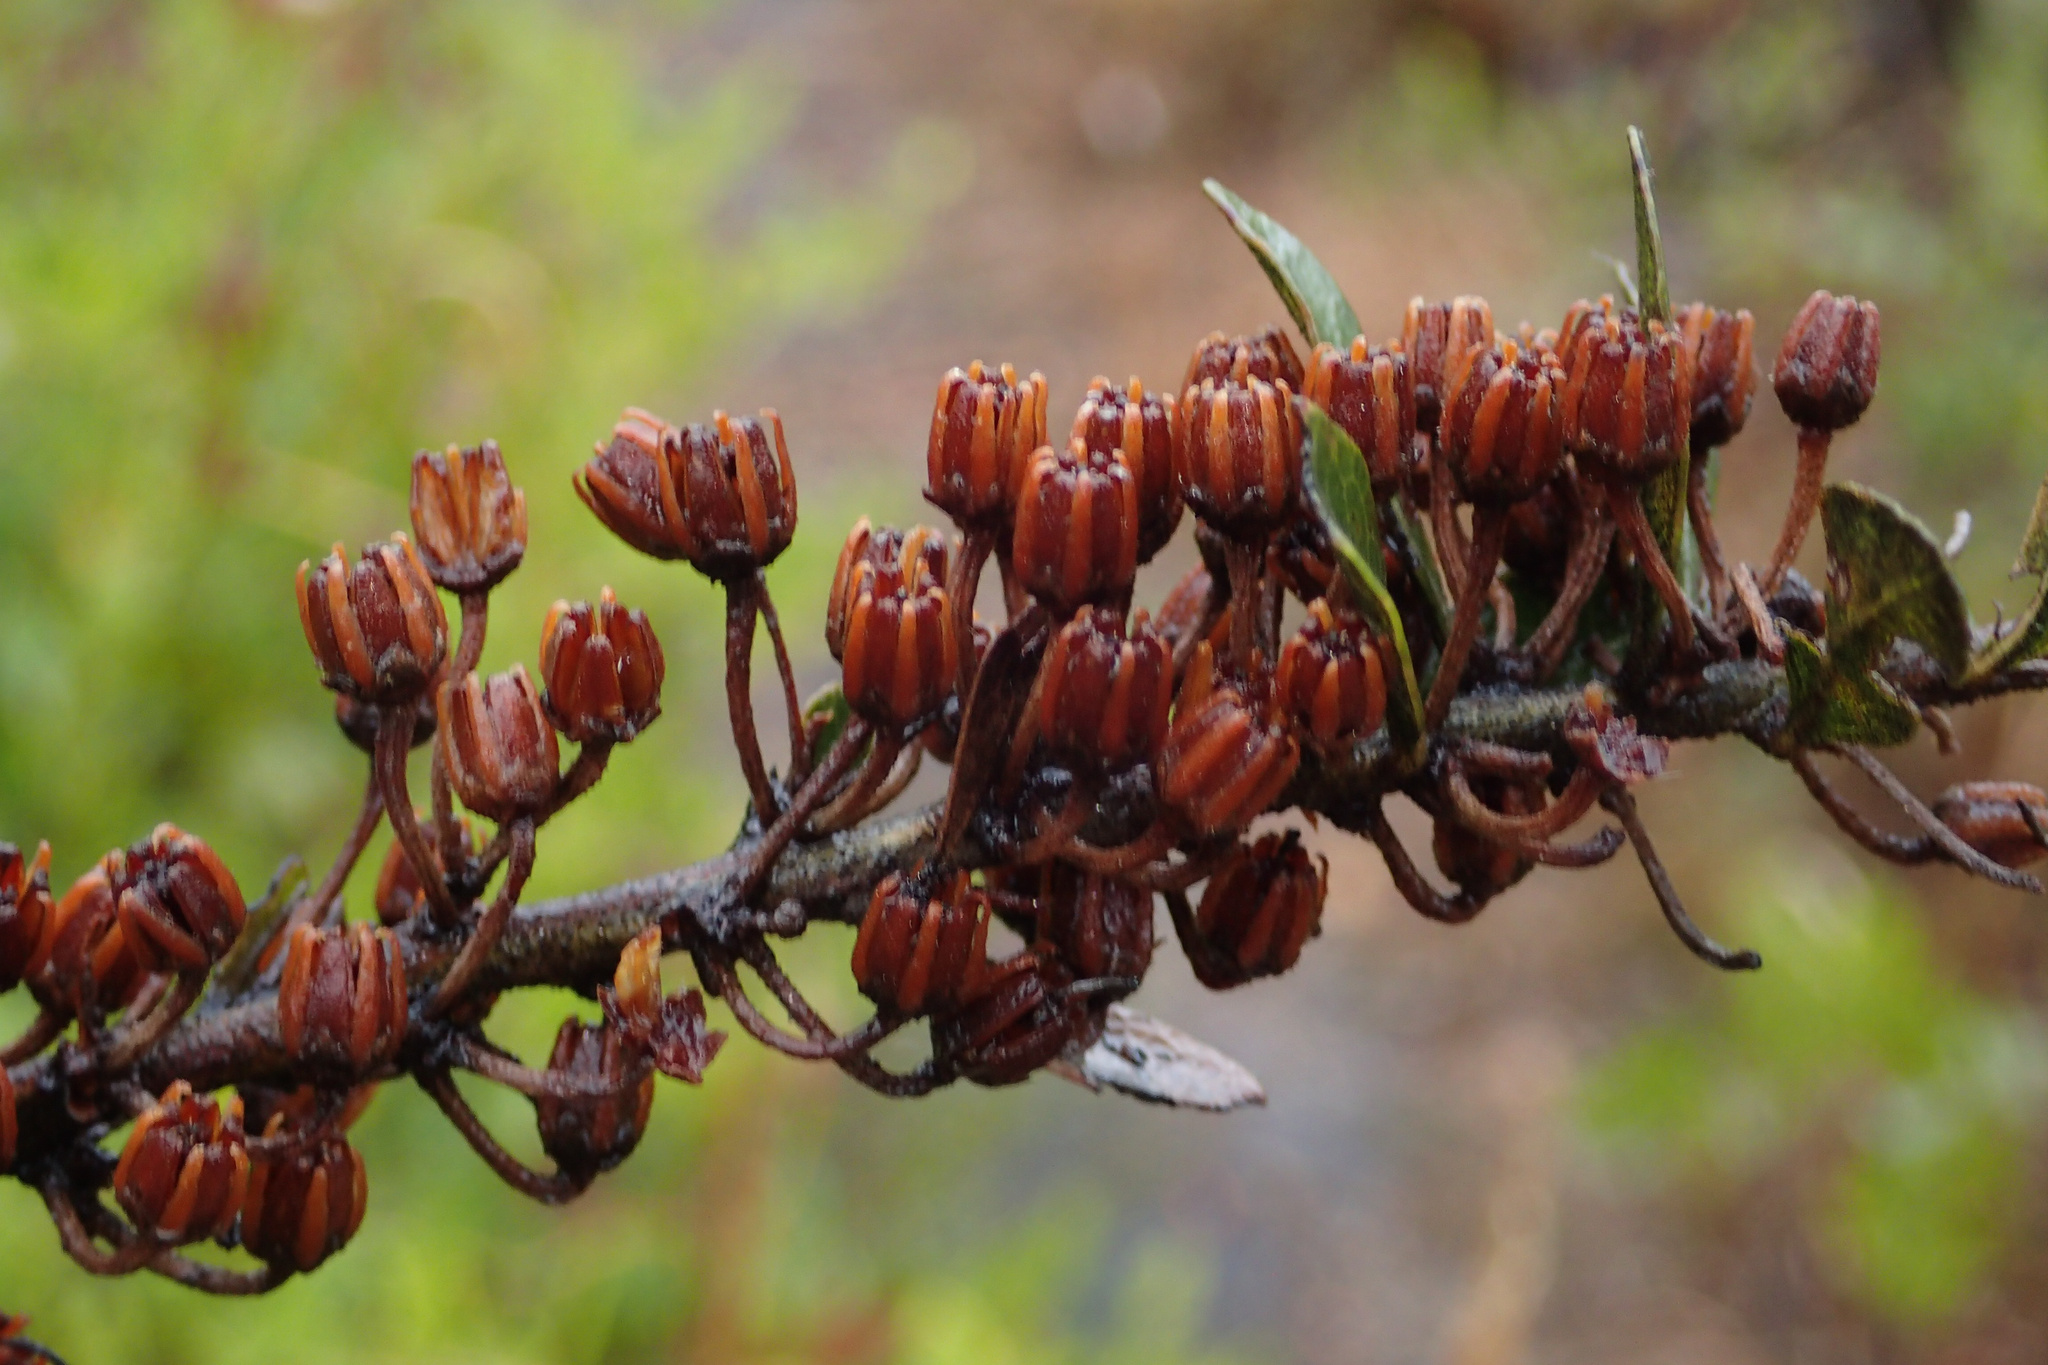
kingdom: Plantae
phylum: Tracheophyta
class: Magnoliopsida
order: Ericales
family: Ericaceae
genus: Lyonia
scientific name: Lyonia fruticosa
